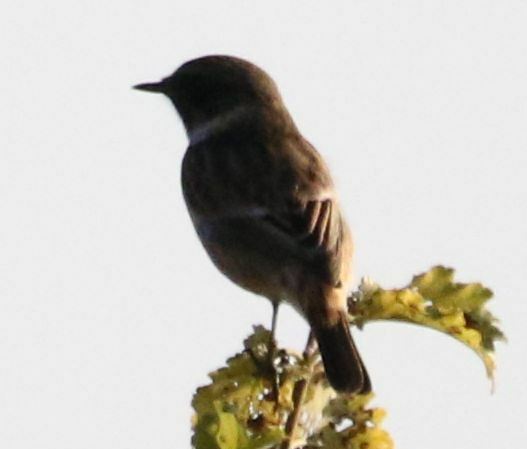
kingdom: Animalia
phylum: Chordata
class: Aves
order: Passeriformes
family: Muscicapidae
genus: Saxicola
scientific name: Saxicola rubicola
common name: European stonechat
